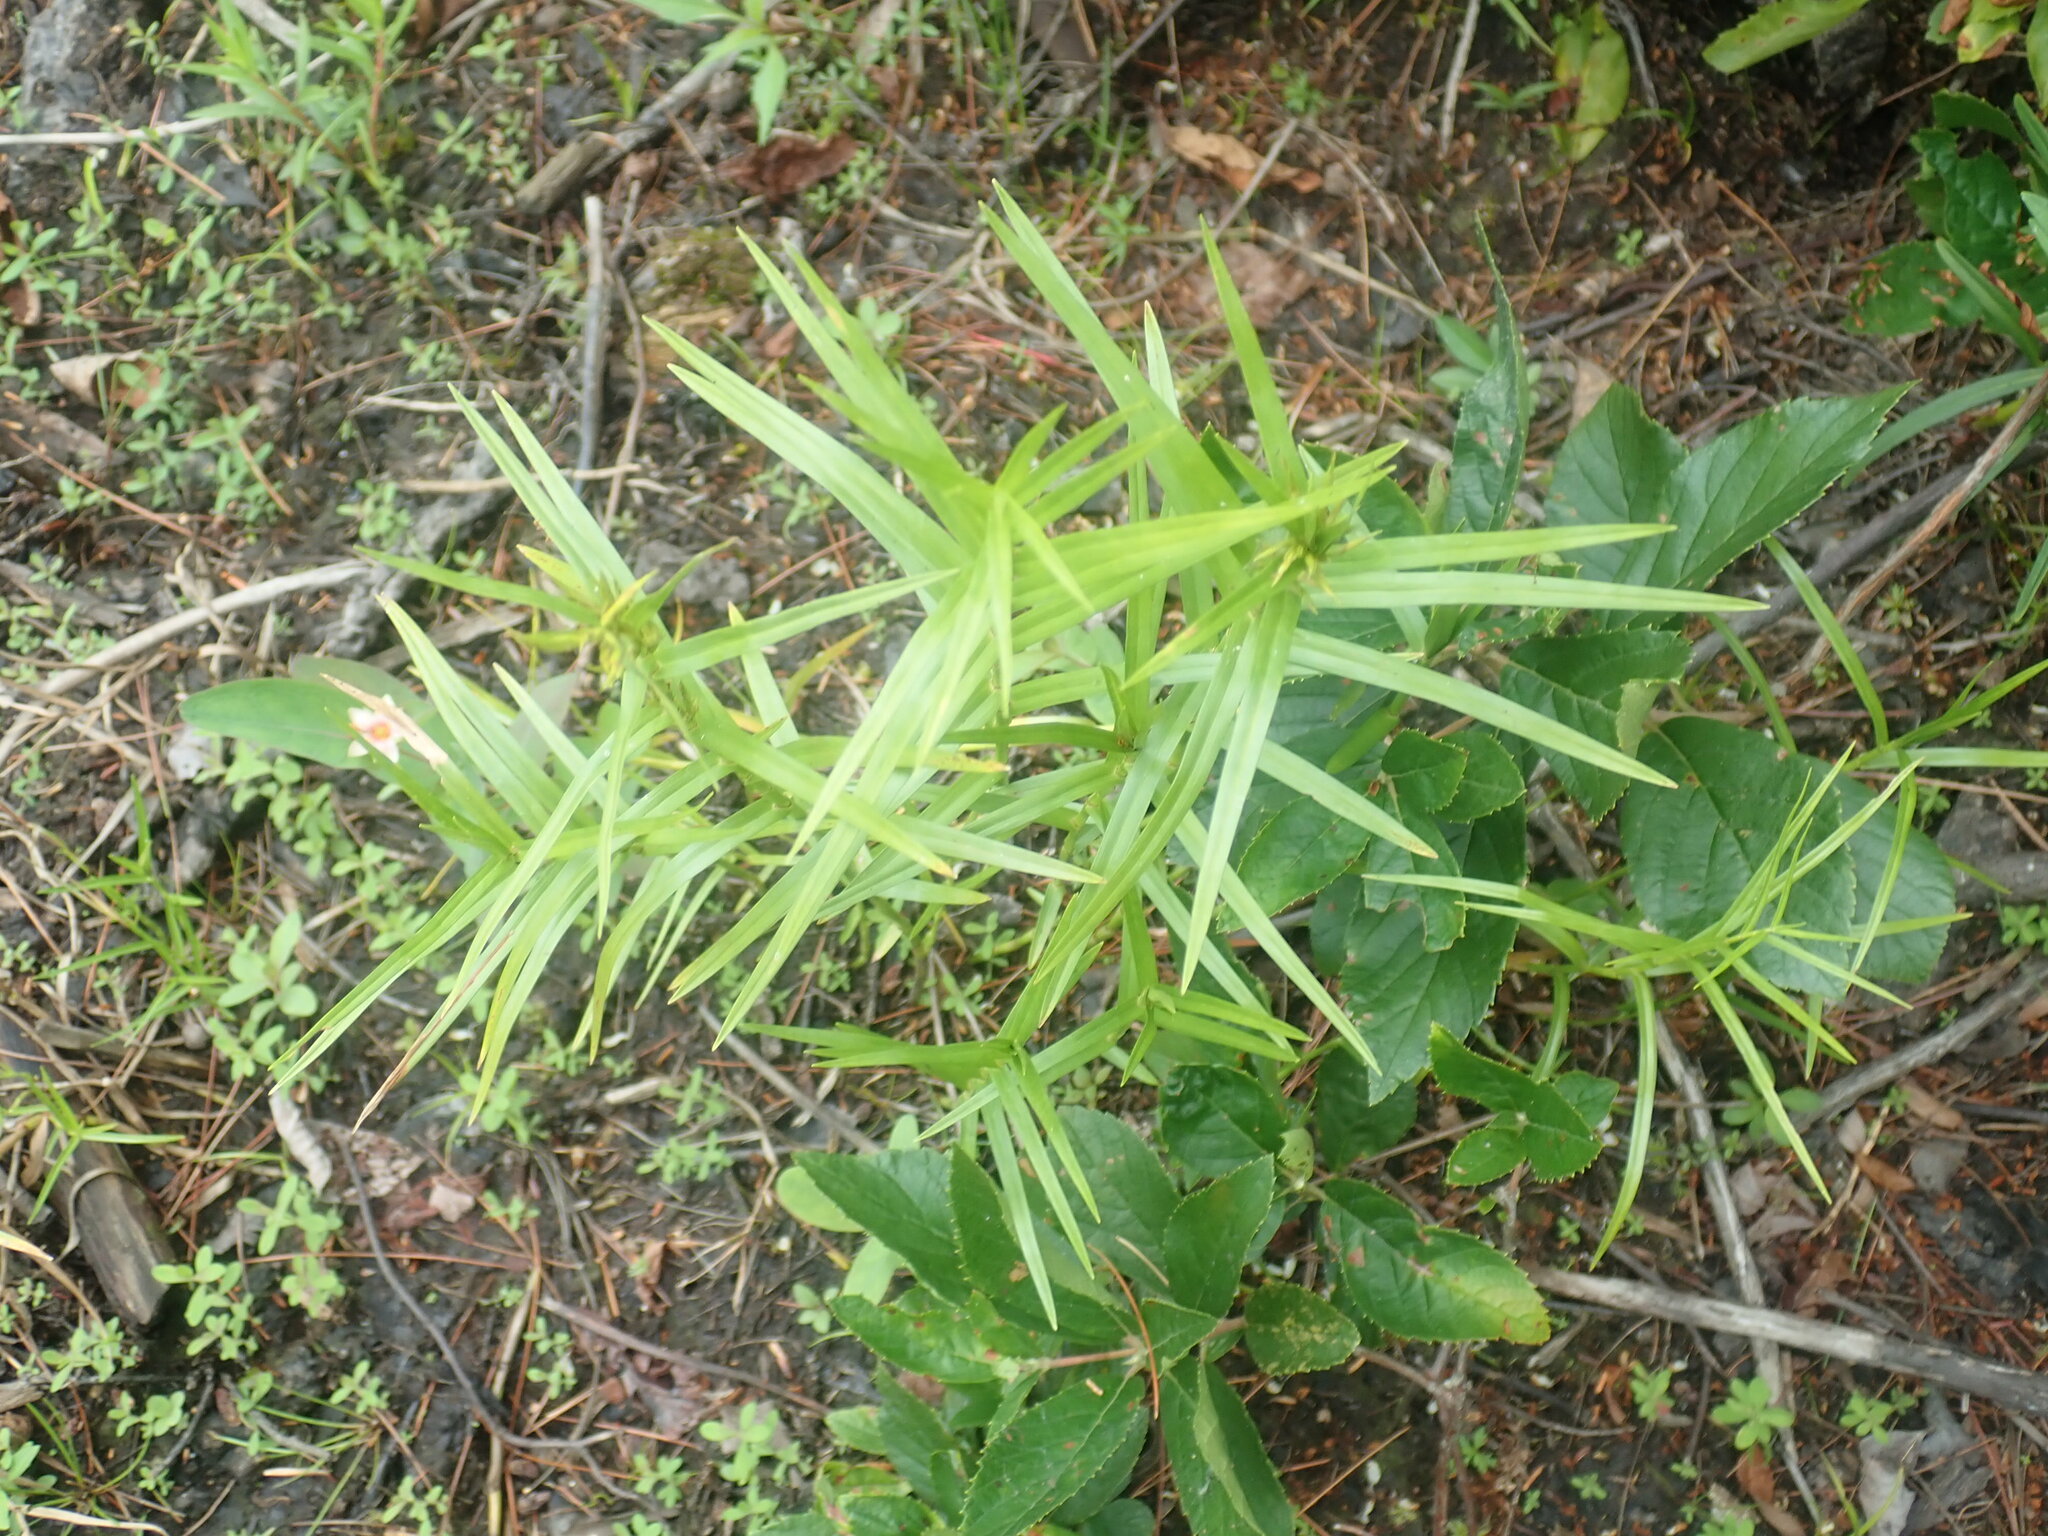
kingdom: Plantae
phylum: Tracheophyta
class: Liliopsida
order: Poales
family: Cyperaceae
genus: Dulichium
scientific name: Dulichium arundinaceum
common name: Three-way sedge
